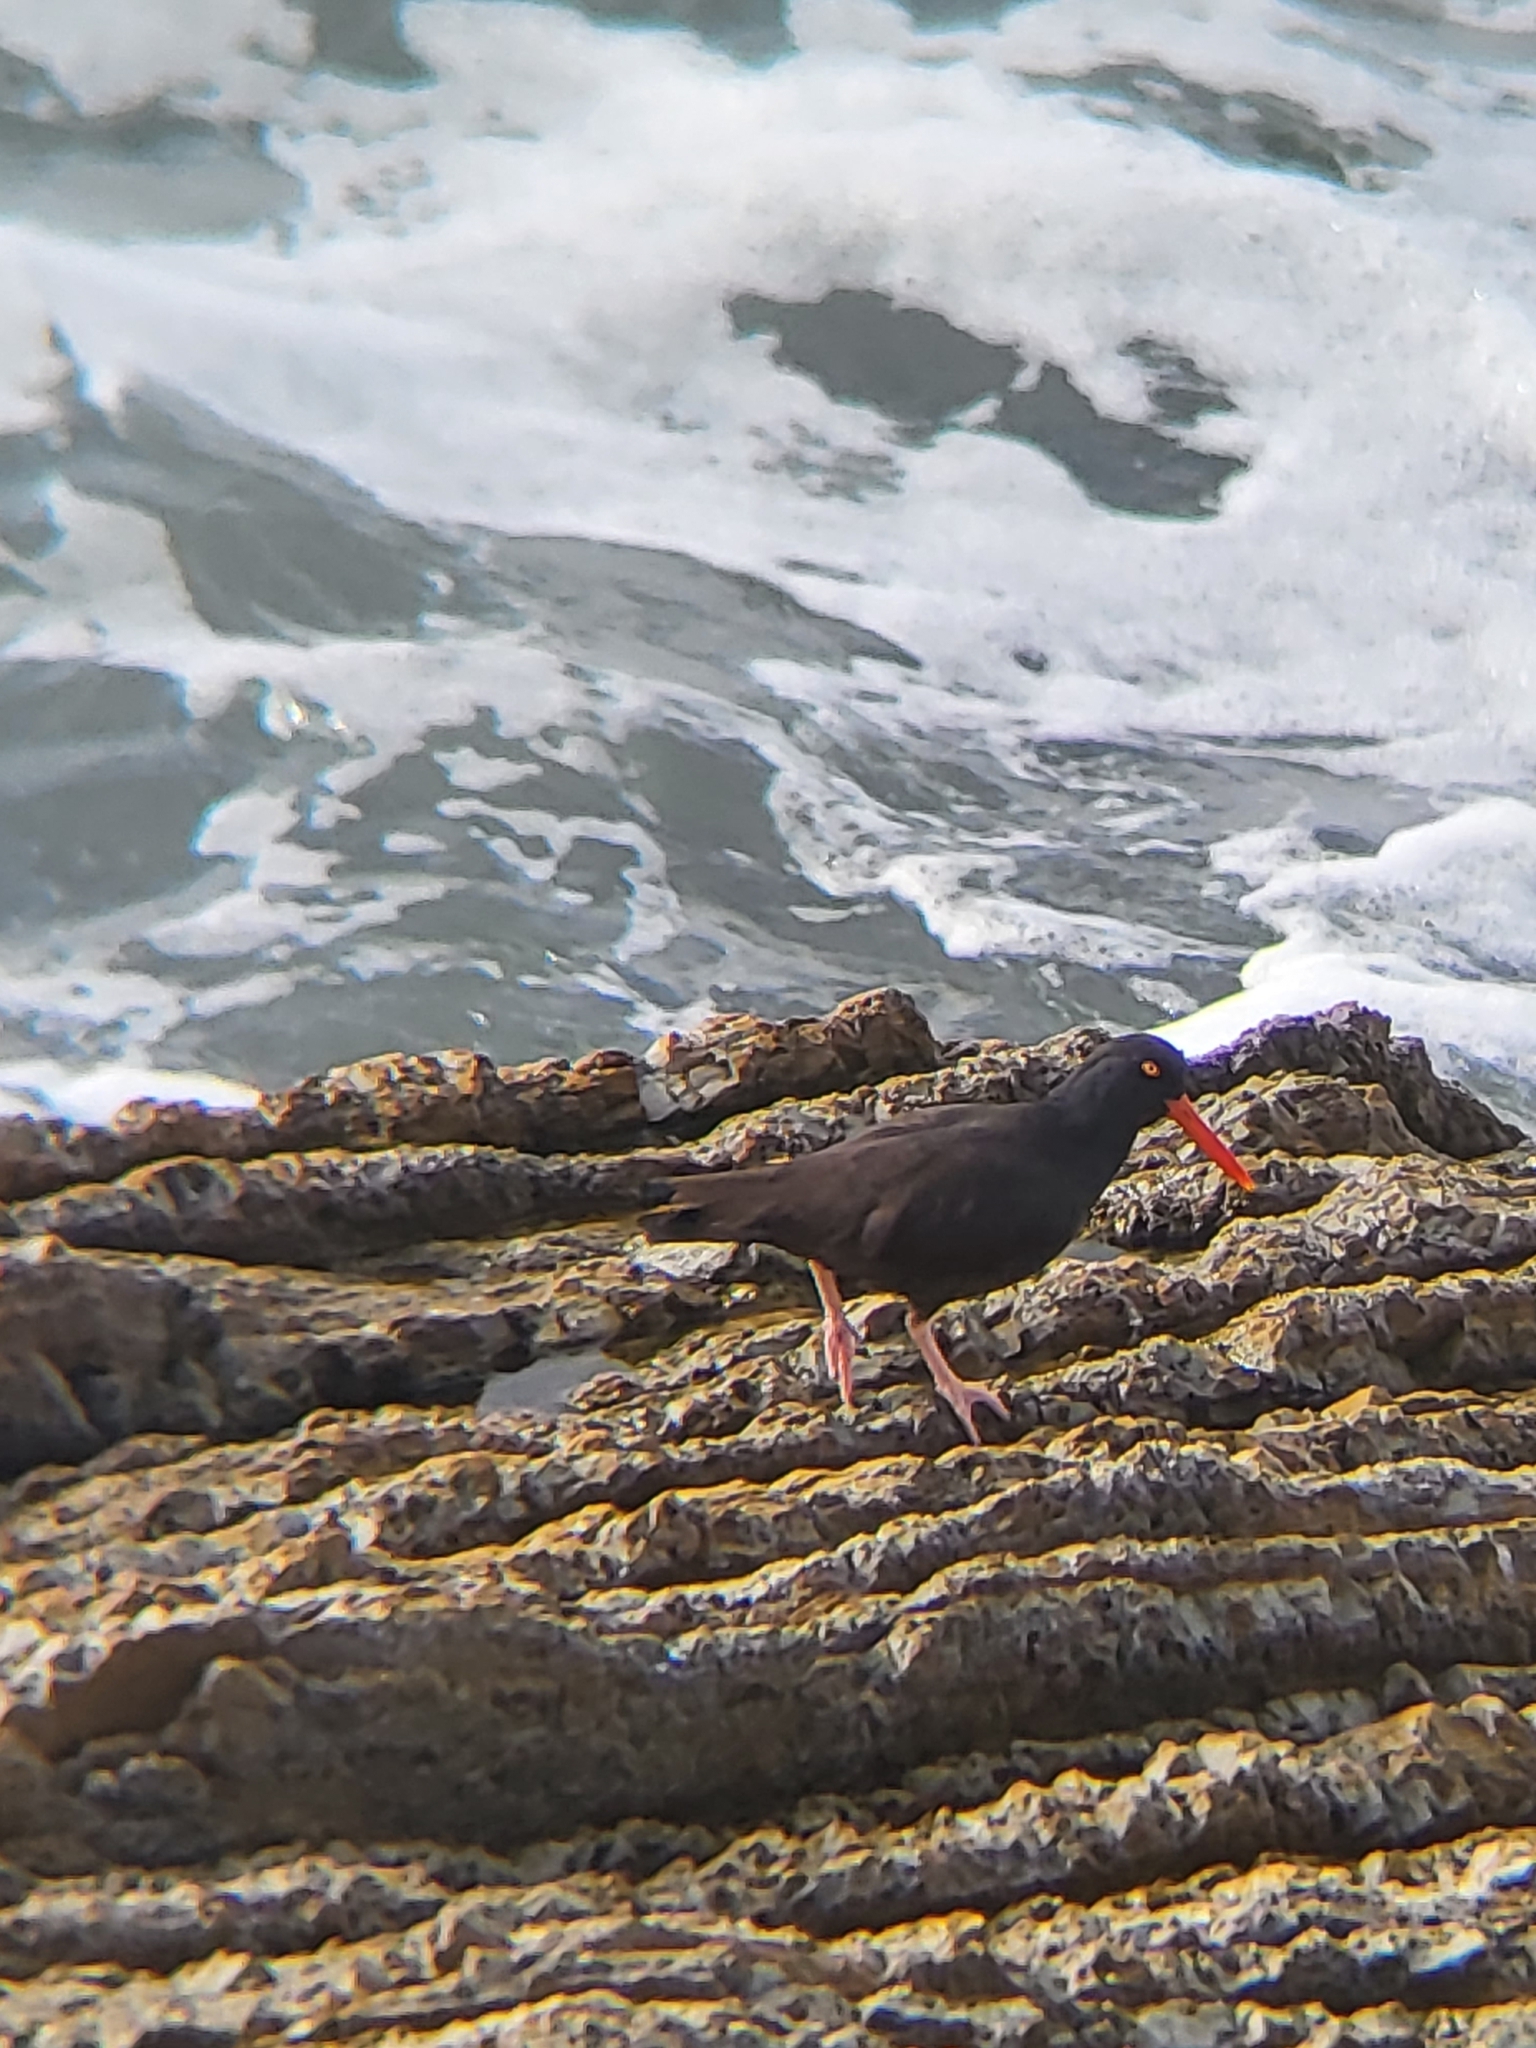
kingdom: Animalia
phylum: Chordata
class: Aves
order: Charadriiformes
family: Haematopodidae
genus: Haematopus
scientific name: Haematopus bachmani
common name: Black oystercatcher
